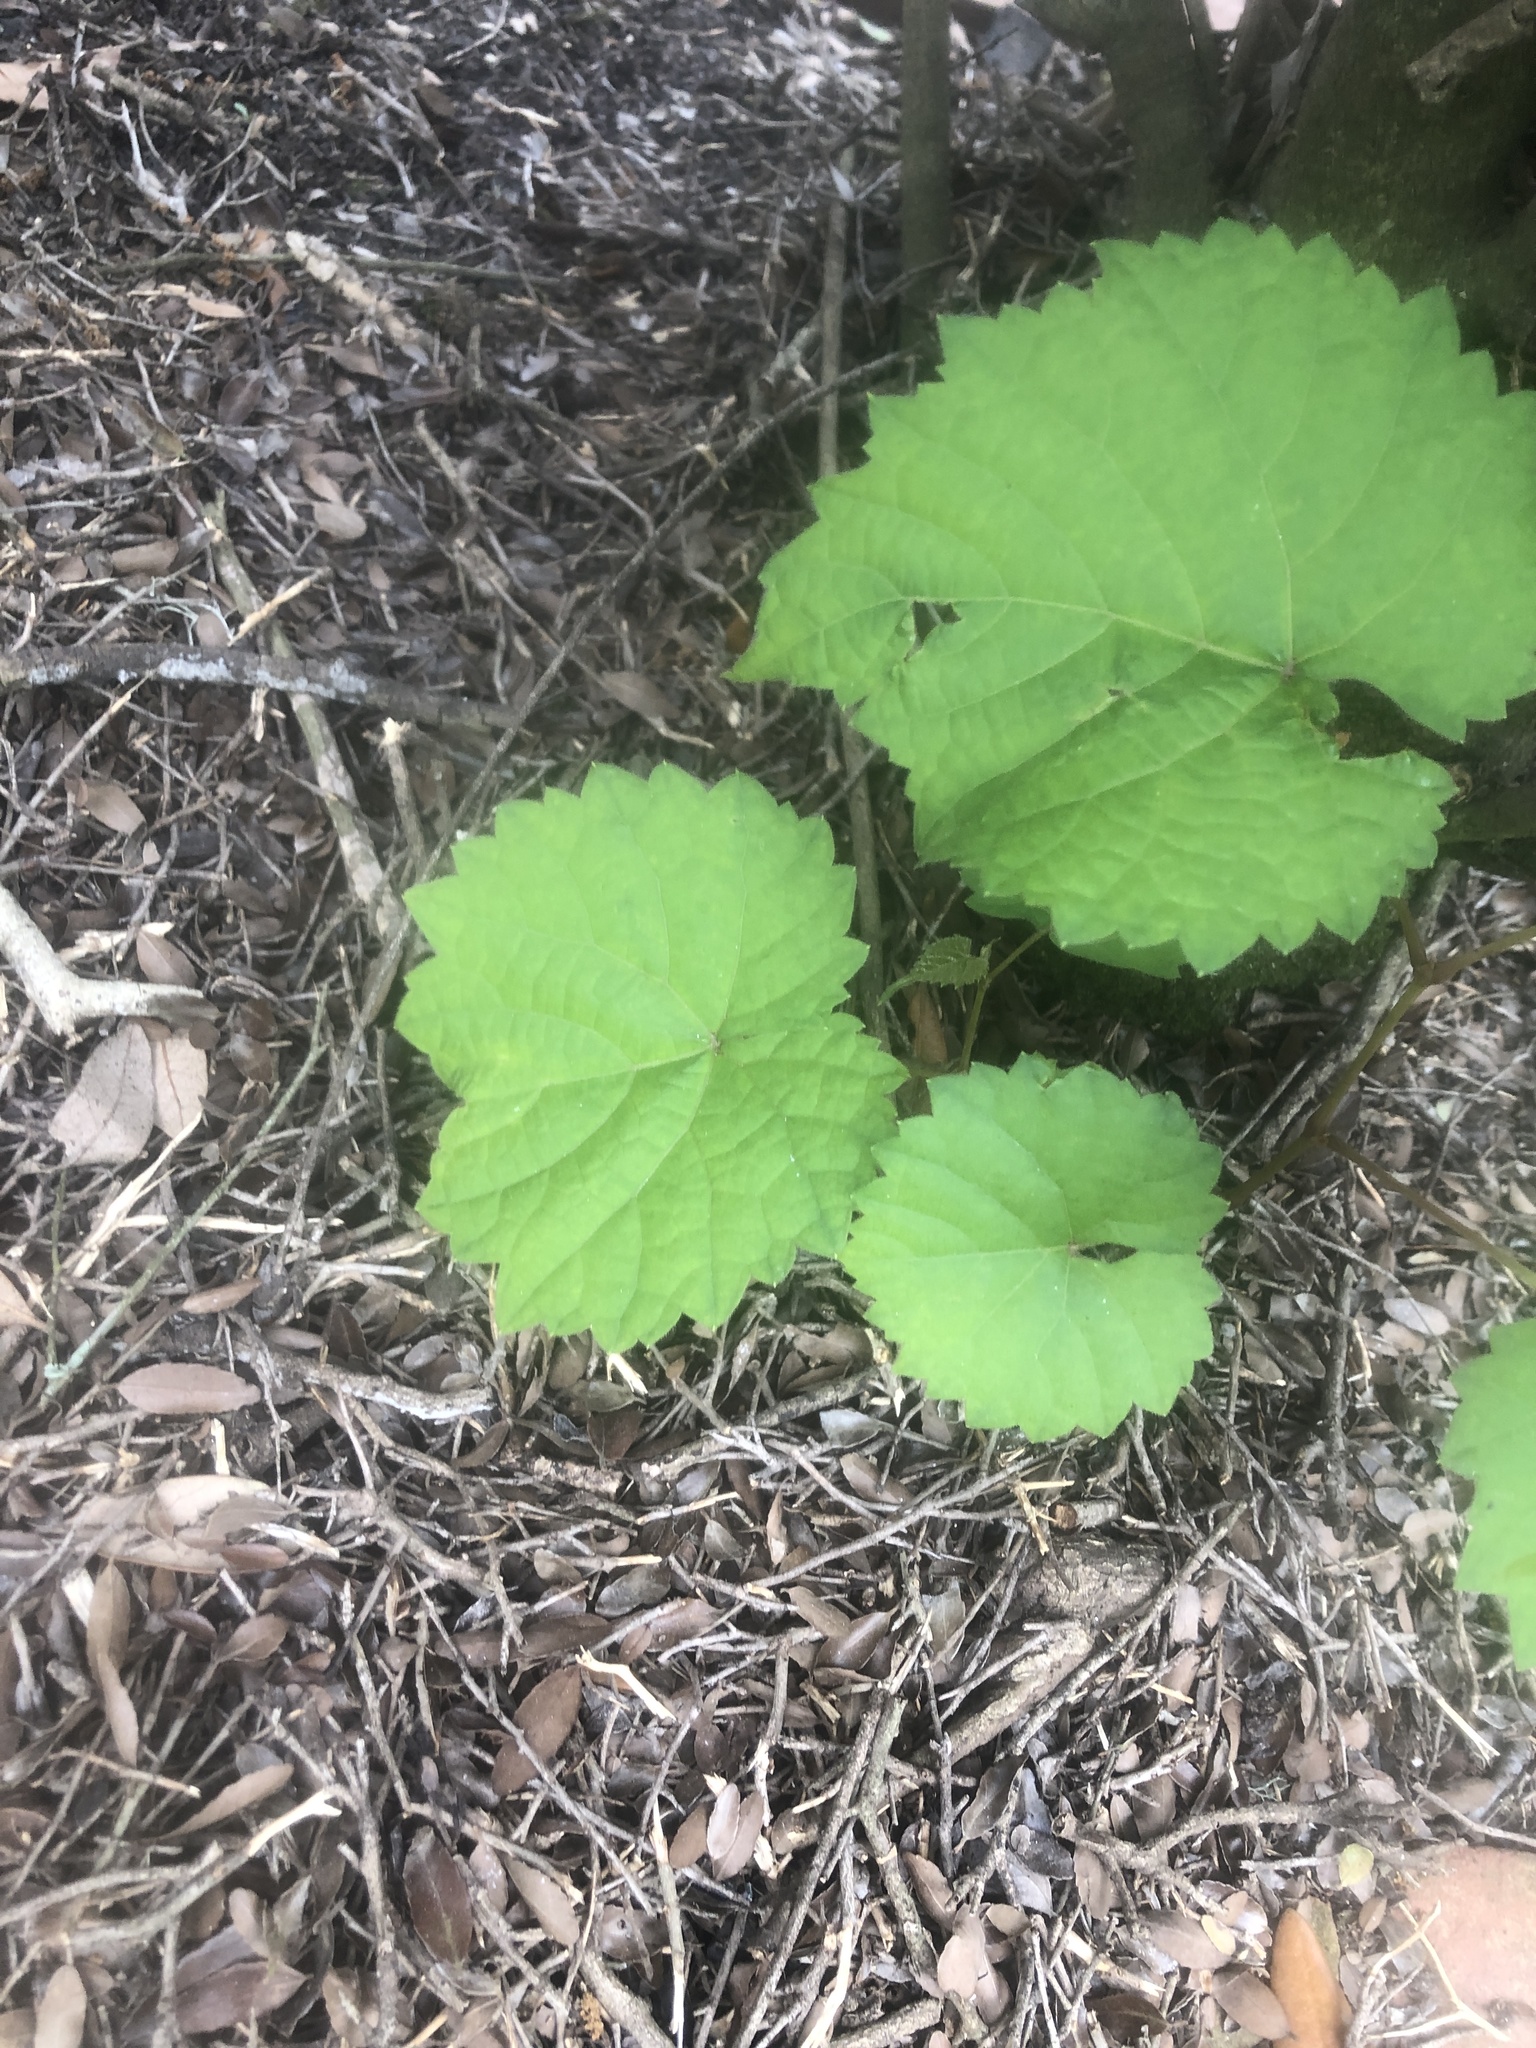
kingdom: Plantae
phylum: Tracheophyta
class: Magnoliopsida
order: Vitales
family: Vitaceae
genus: Vitis
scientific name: Vitis rotundifolia
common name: Muscadine grape
